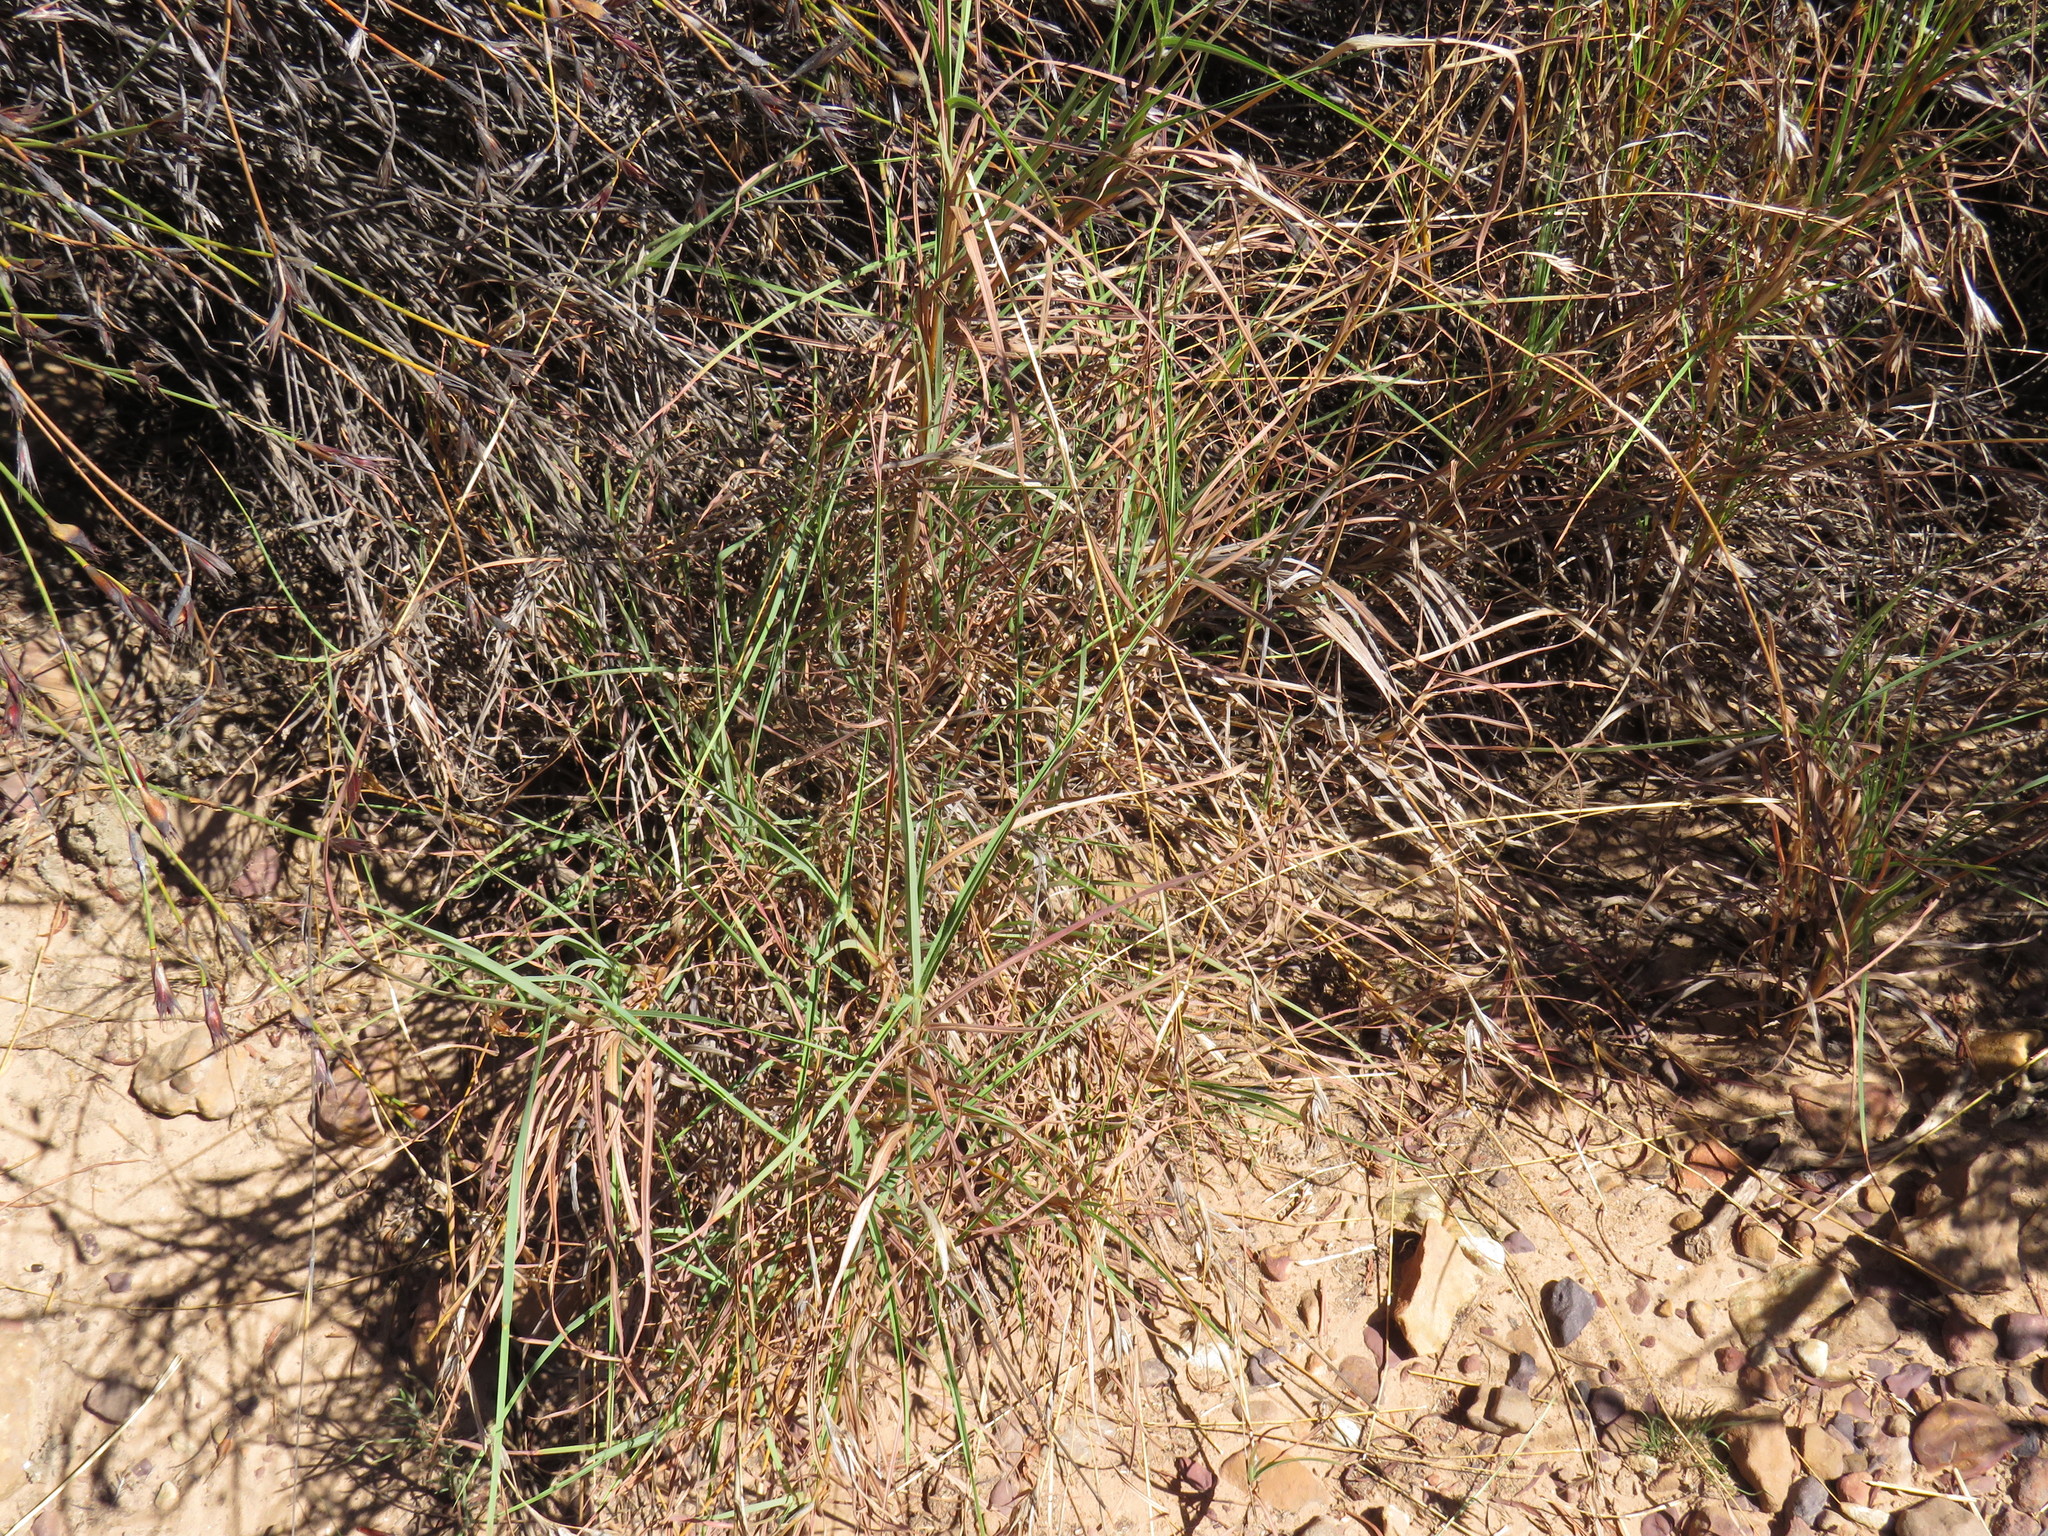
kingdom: Plantae
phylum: Tracheophyta
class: Liliopsida
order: Poales
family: Poaceae
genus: Cenchrus
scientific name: Cenchrus clandestinus
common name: Kikuyugrass
